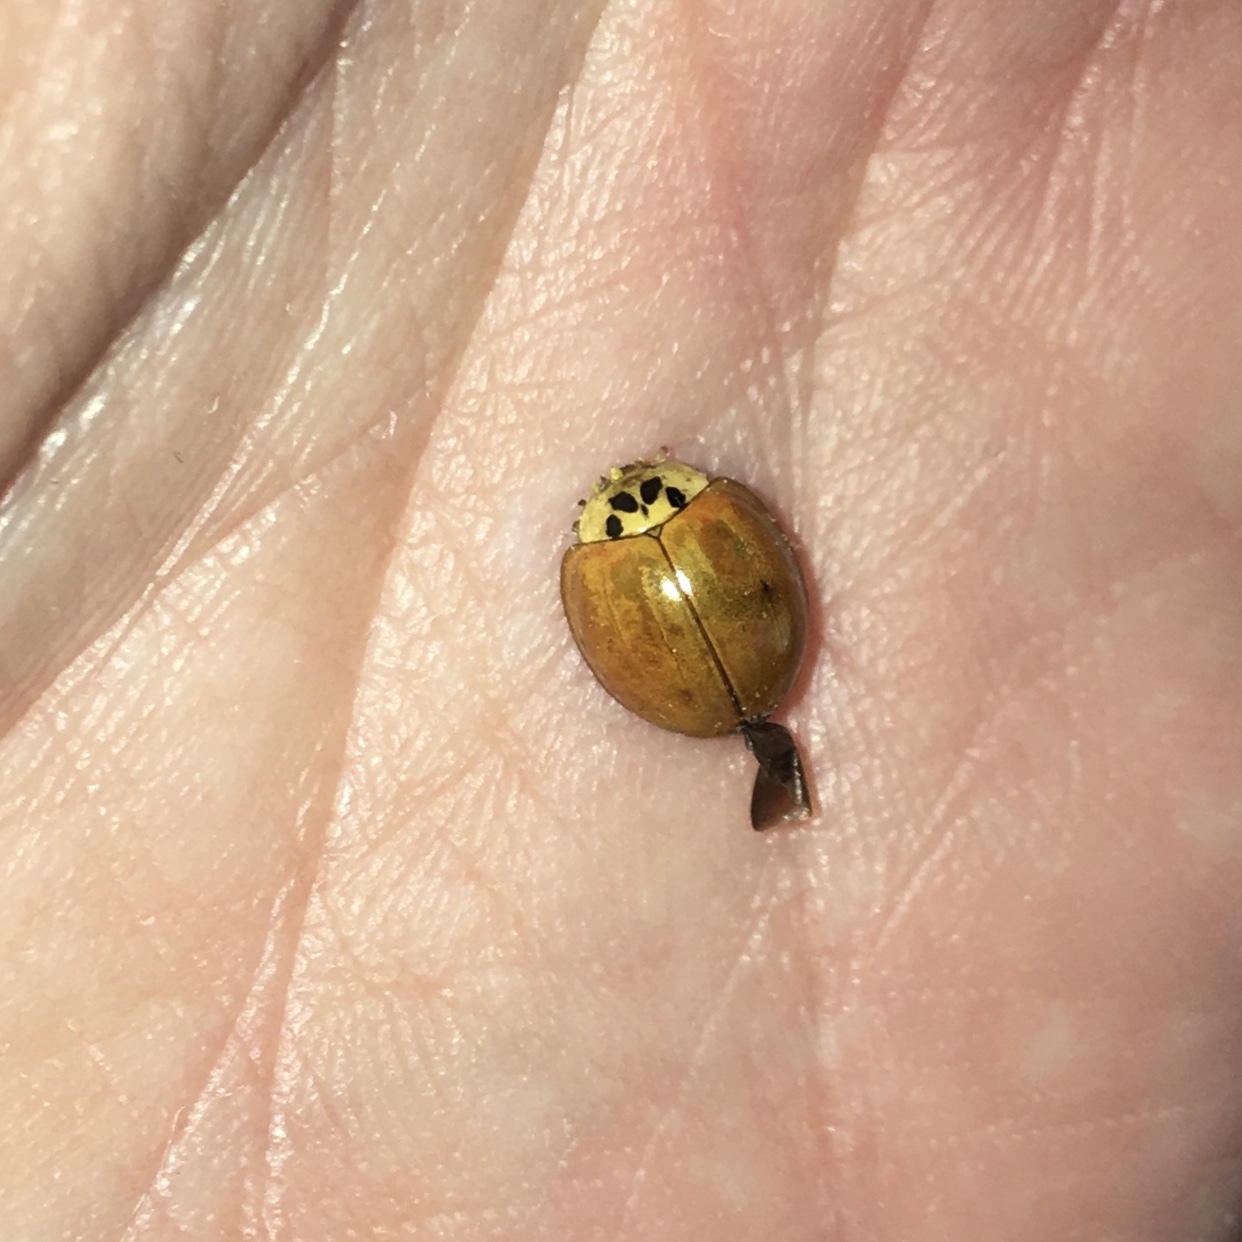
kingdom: Animalia
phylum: Arthropoda
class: Insecta
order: Coleoptera
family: Coccinellidae
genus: Harmonia
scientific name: Harmonia axyridis
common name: Harlequin ladybird
